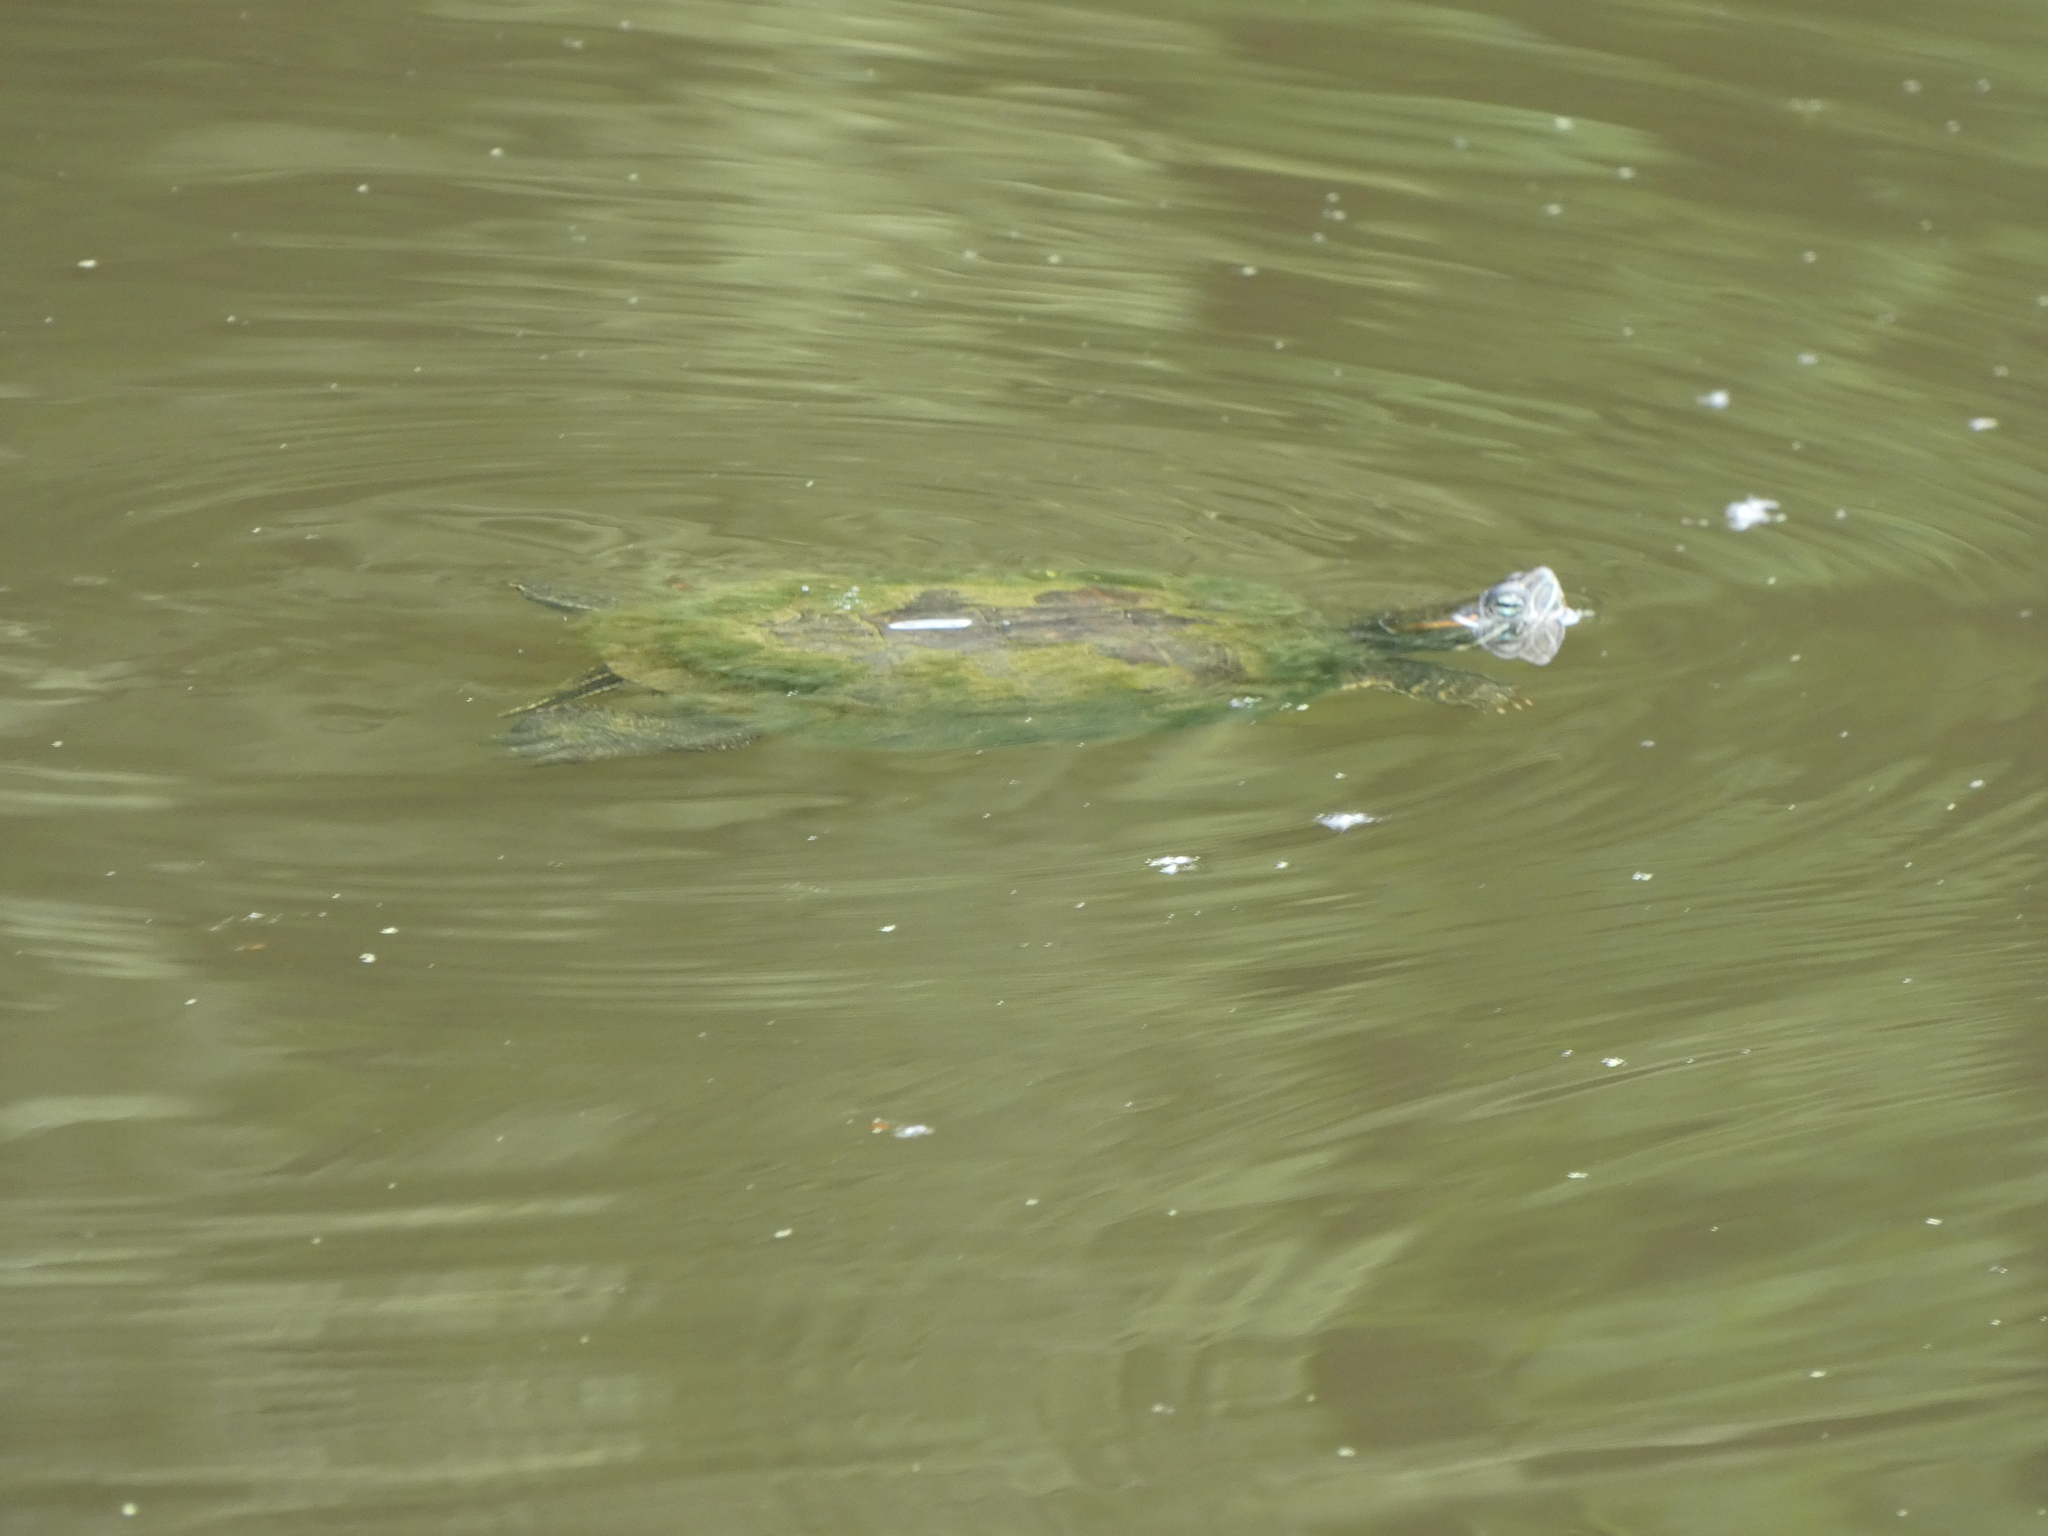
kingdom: Animalia
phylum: Chordata
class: Testudines
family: Emydidae
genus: Trachemys
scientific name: Trachemys scripta
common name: Slider
